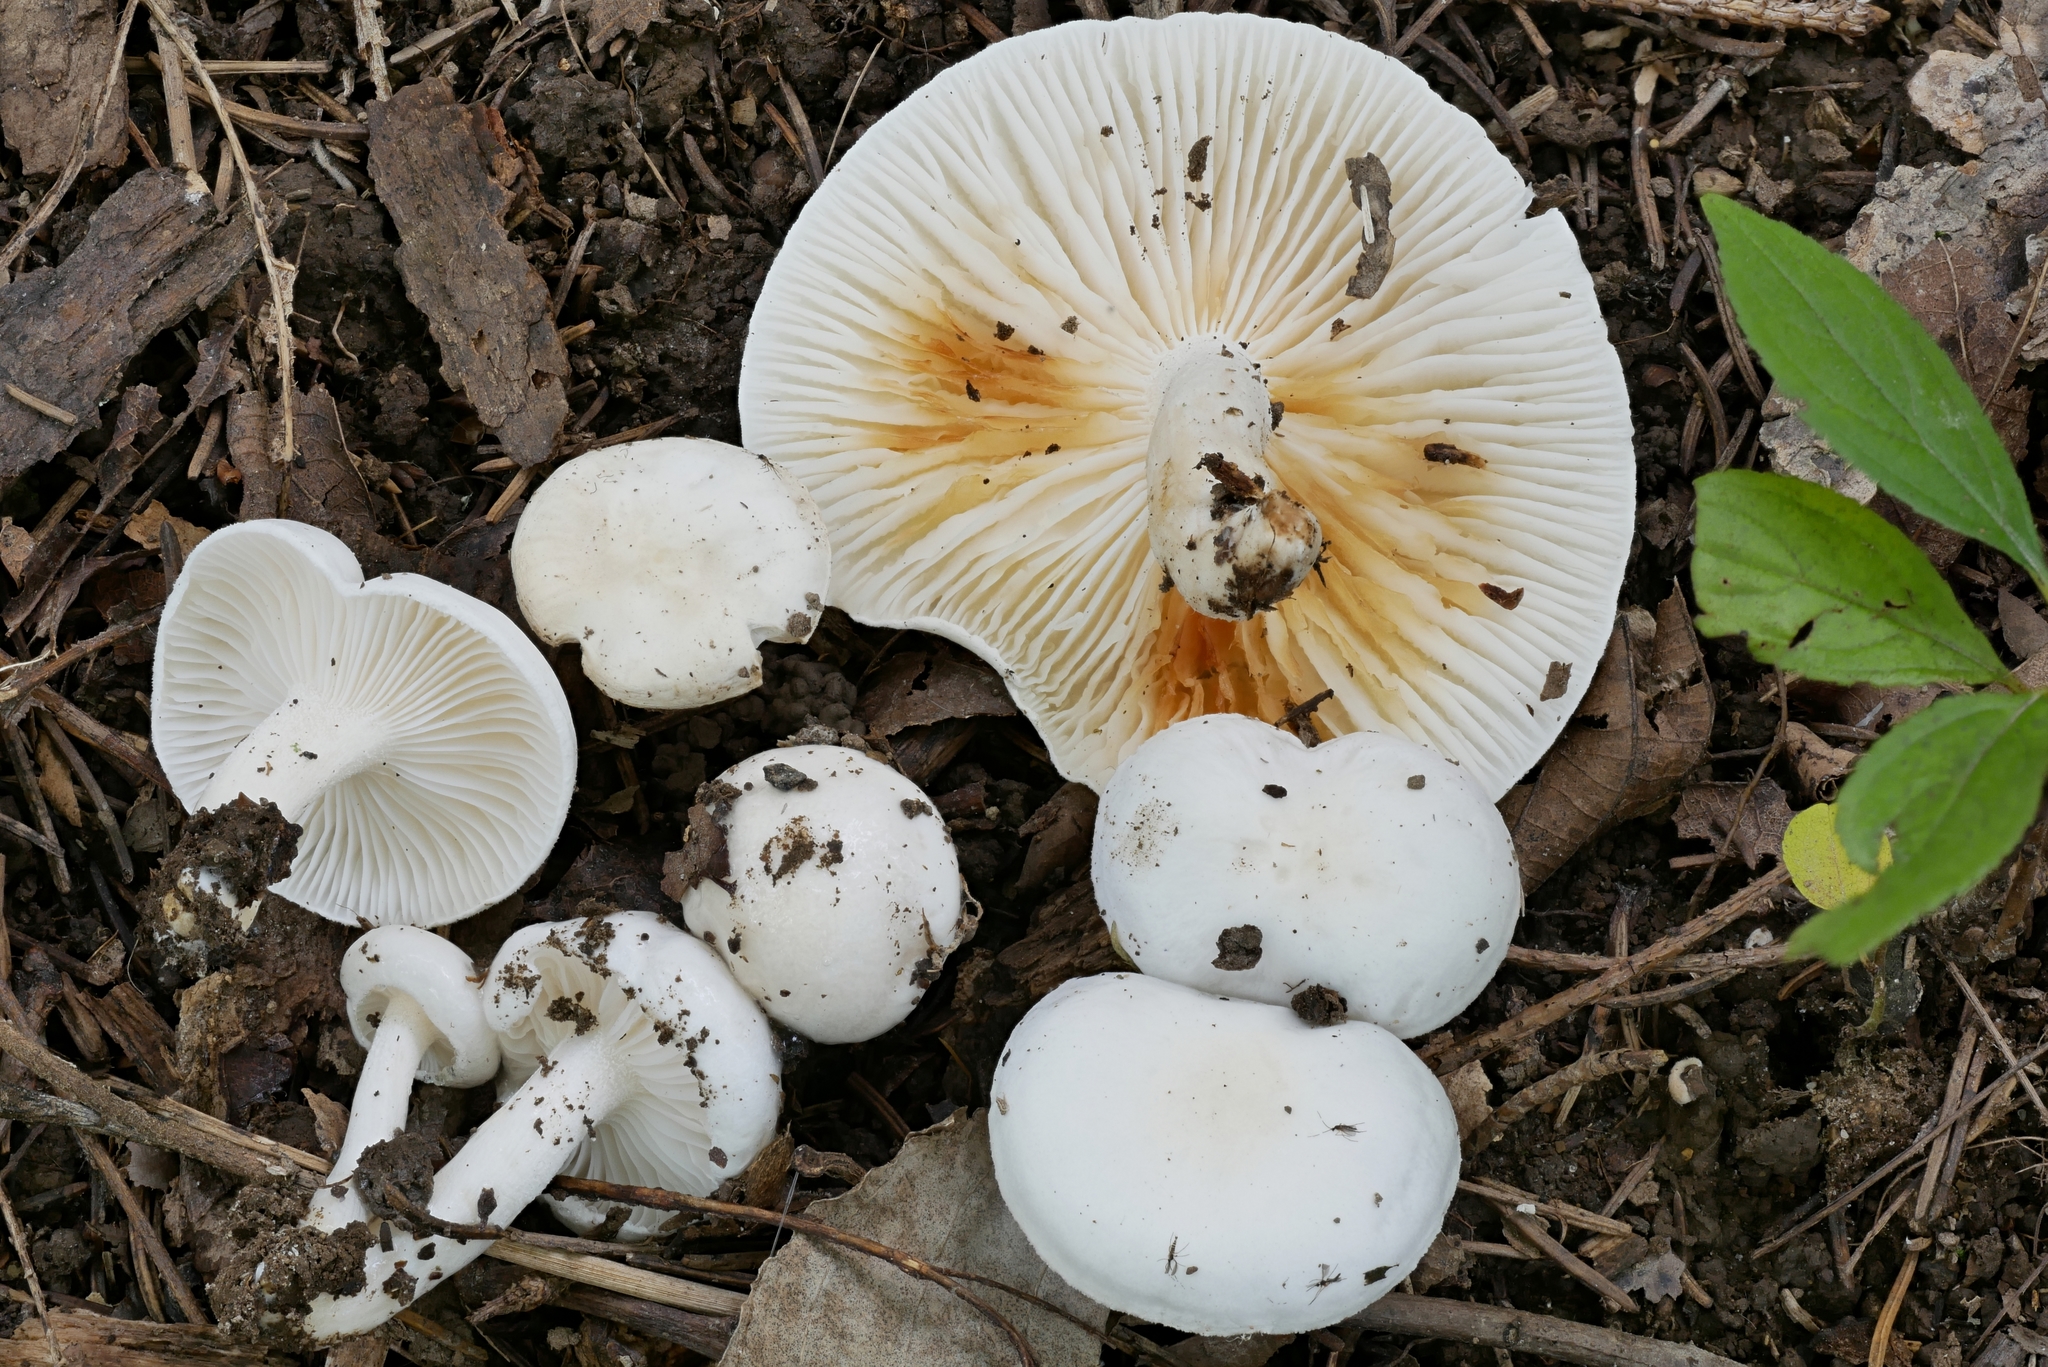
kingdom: Fungi
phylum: Basidiomycota
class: Agaricomycetes
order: Agaricales
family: Hygrophoraceae
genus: Hygrophorus
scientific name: Hygrophorus occidentalis
